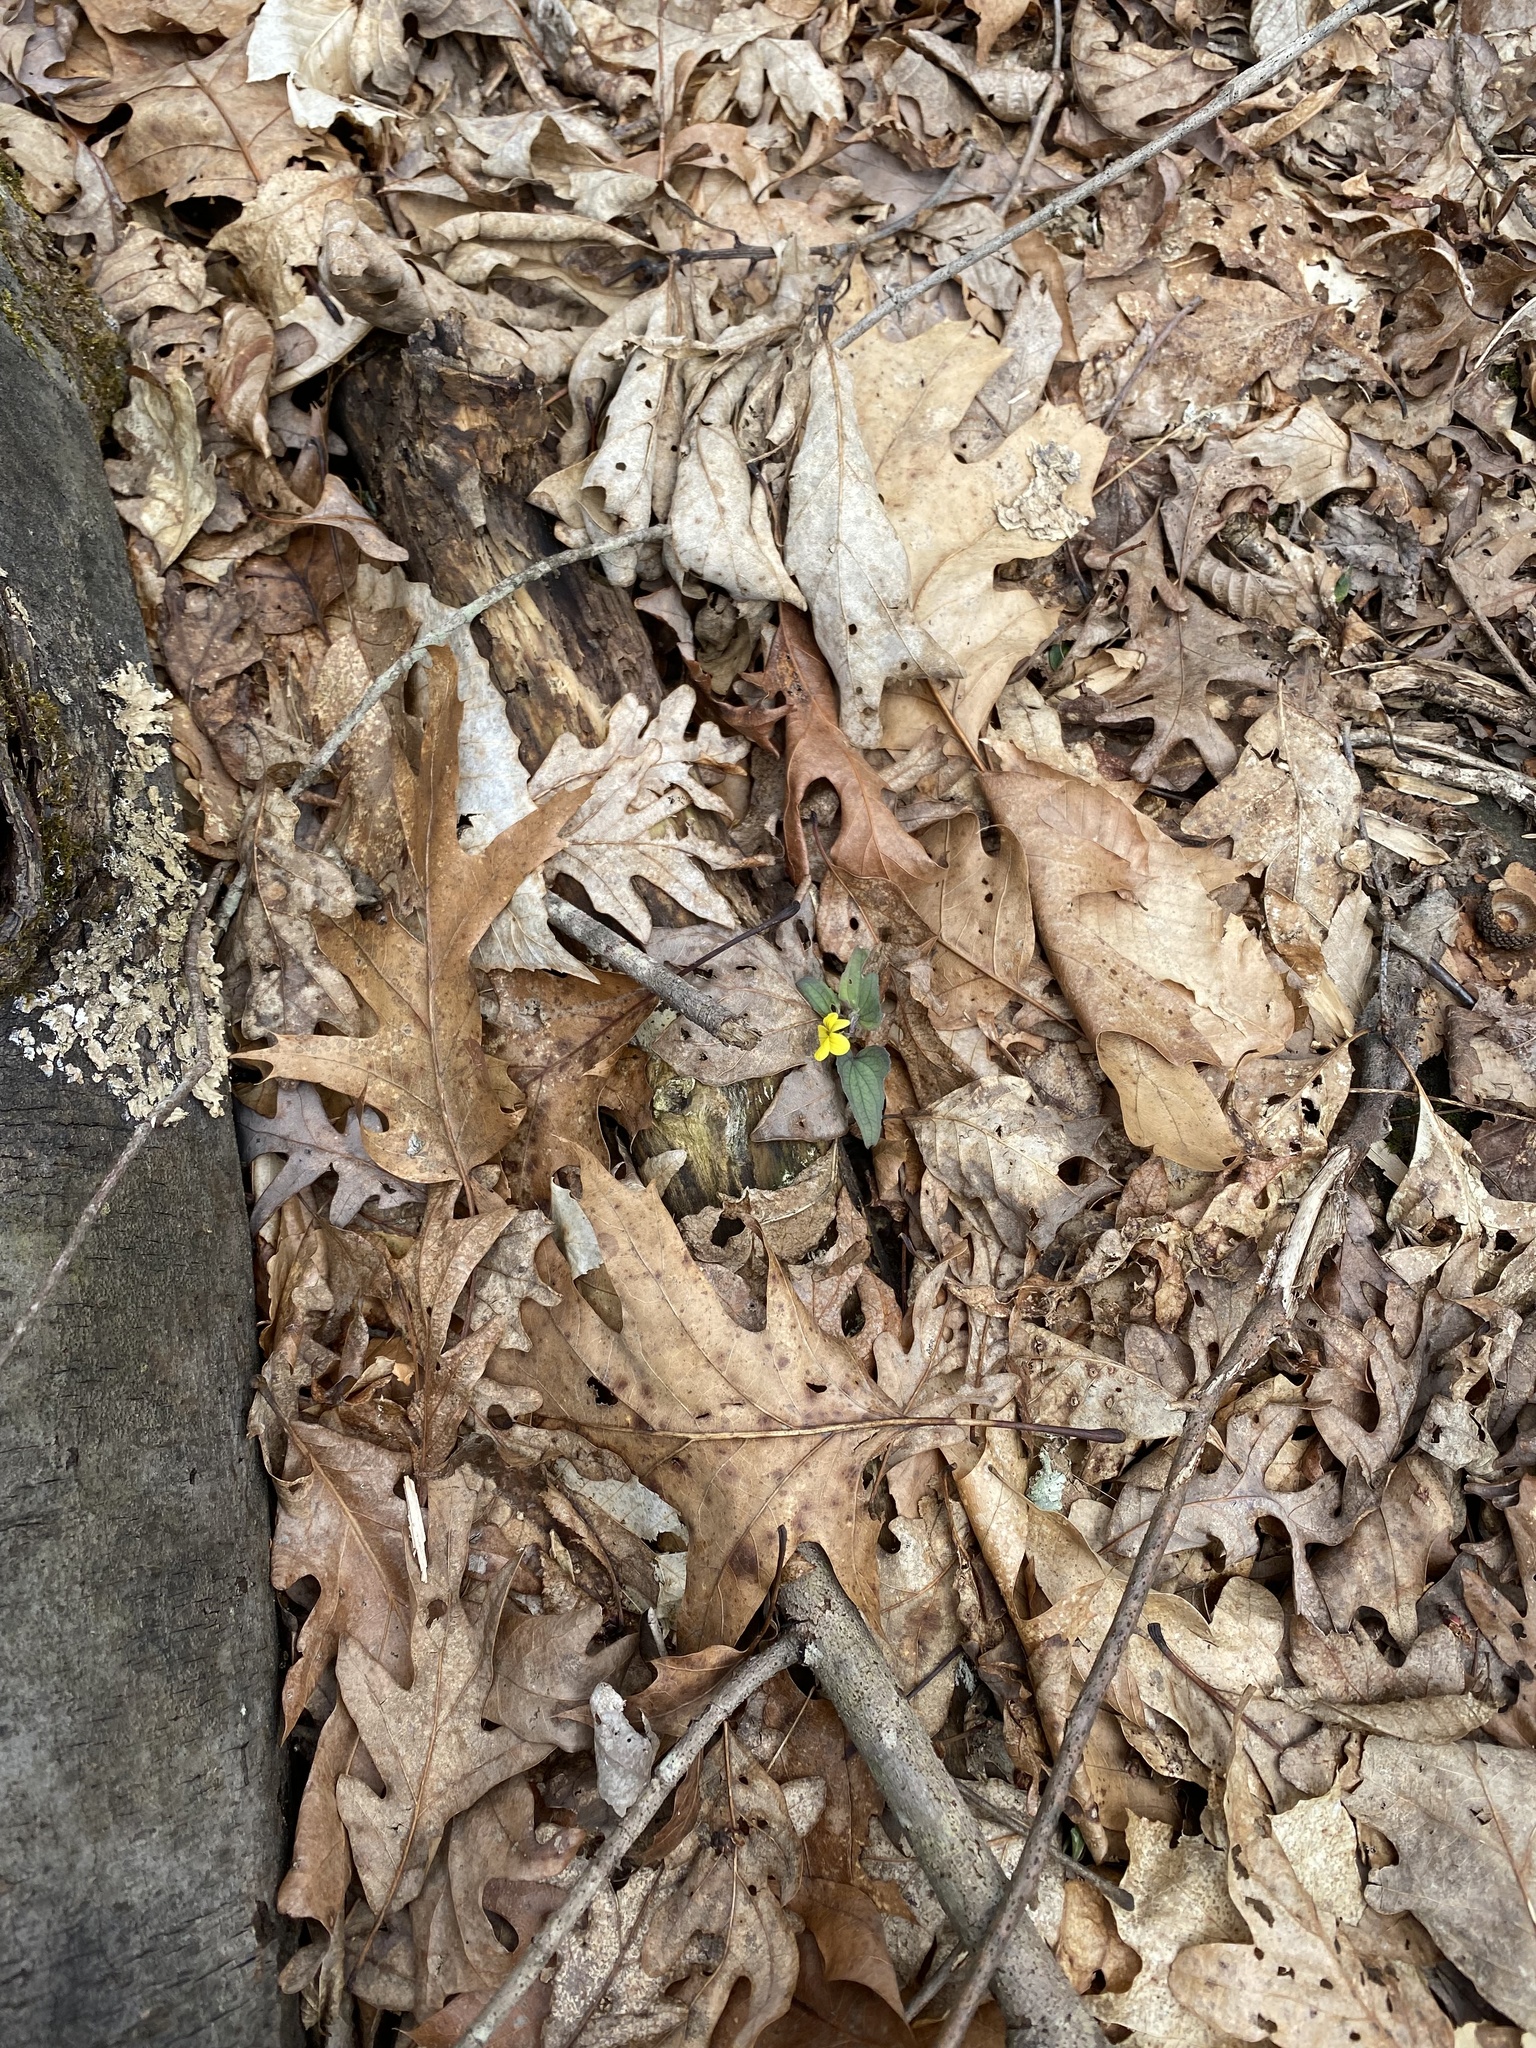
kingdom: Plantae
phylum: Tracheophyta
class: Magnoliopsida
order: Malpighiales
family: Violaceae
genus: Viola
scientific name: Viola hastata
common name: Spear-leaf violet
